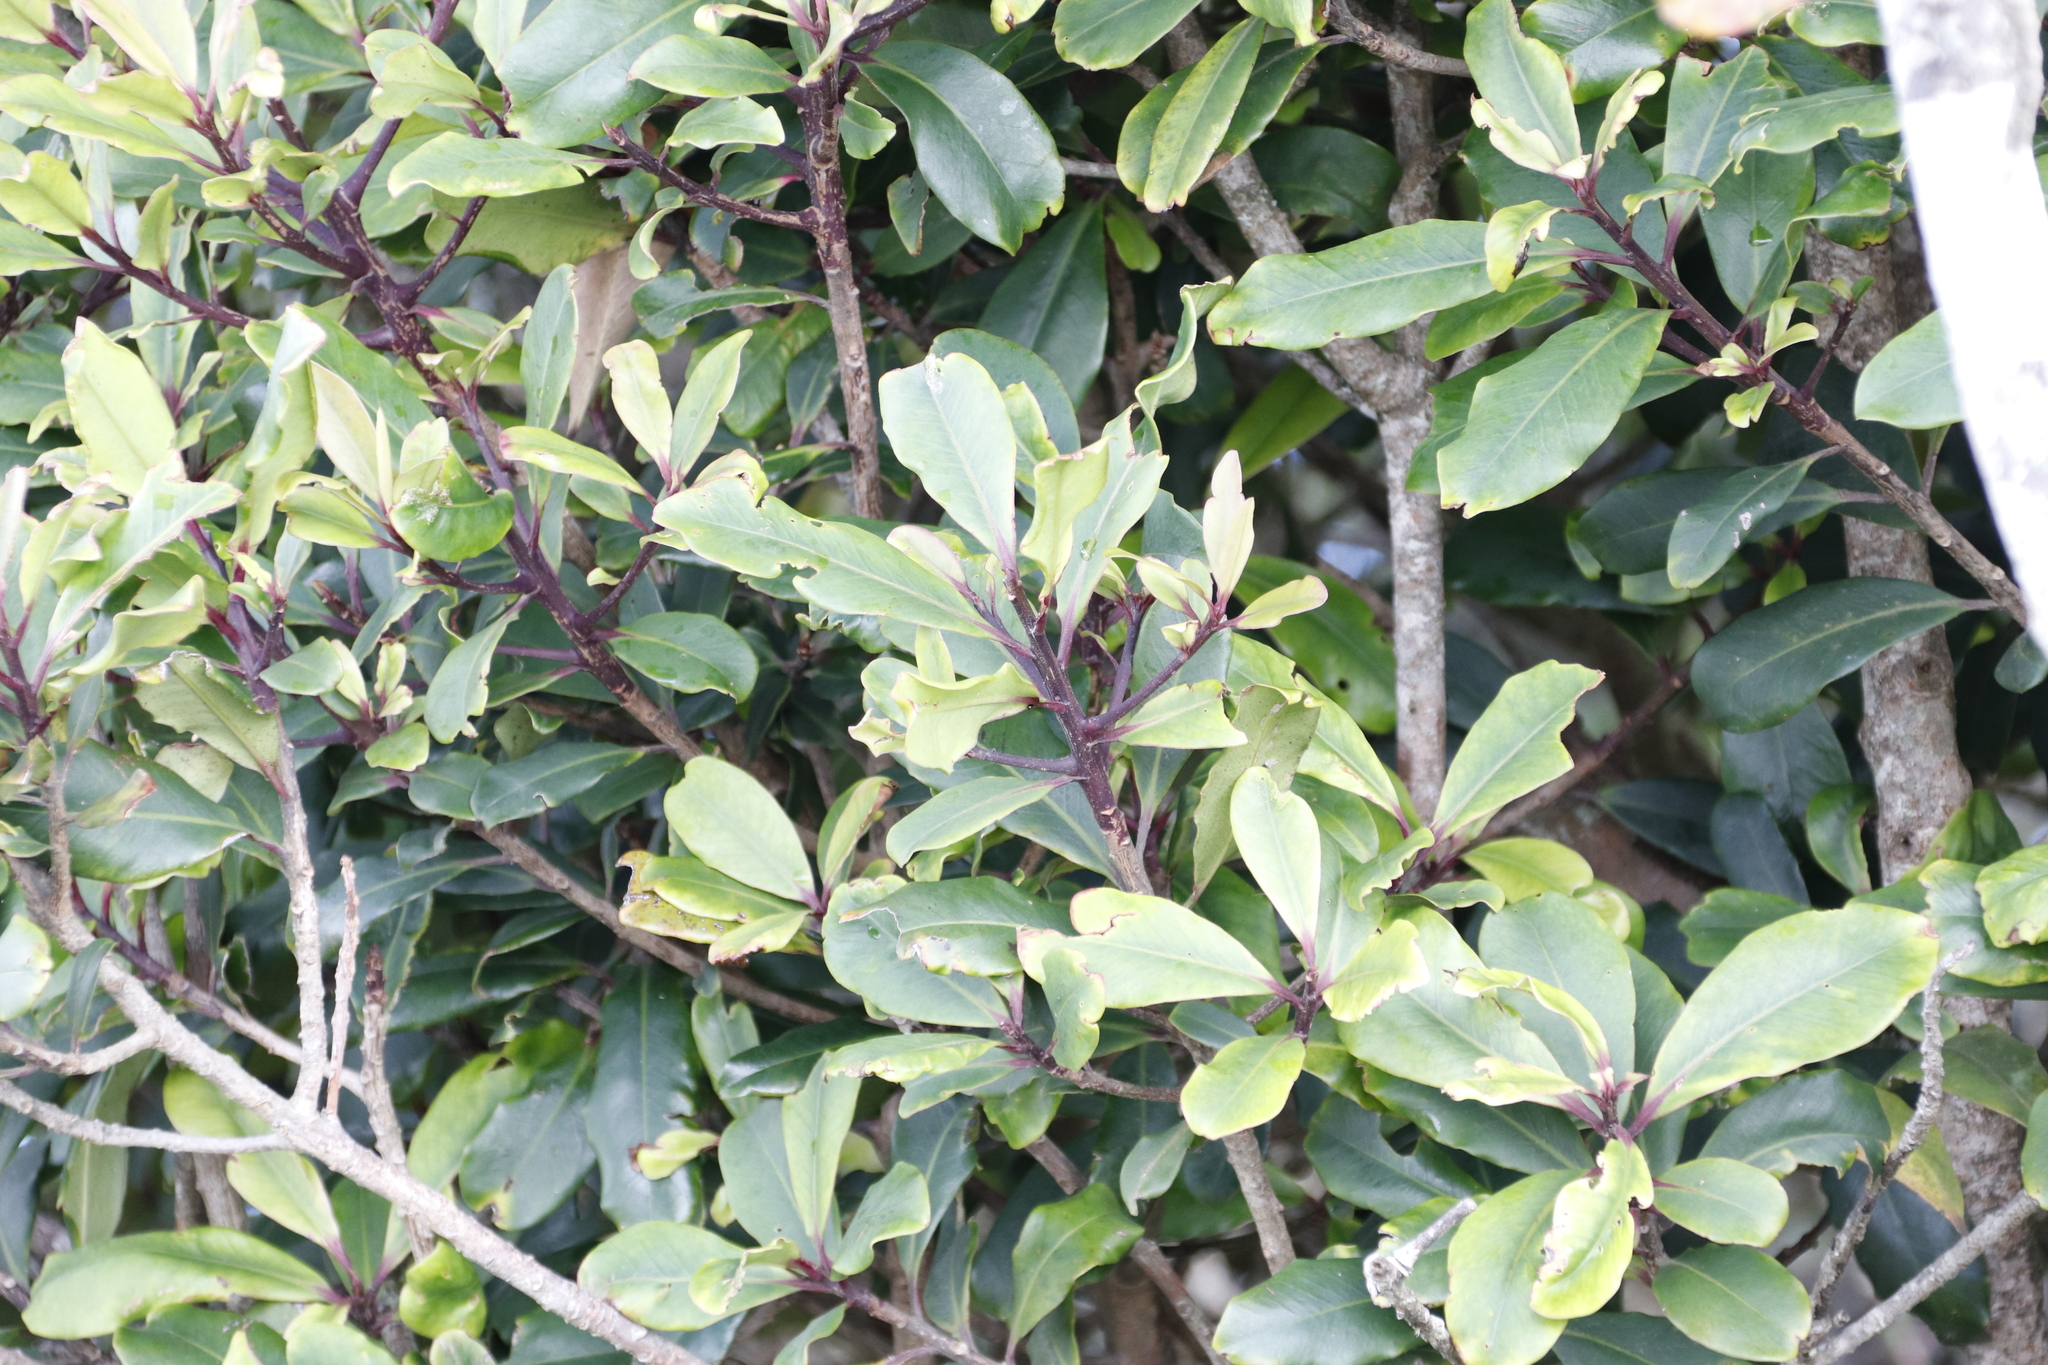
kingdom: Plantae
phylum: Tracheophyta
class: Magnoliopsida
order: Ericales
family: Primulaceae
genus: Myrsine
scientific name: Myrsine melanophloeos
